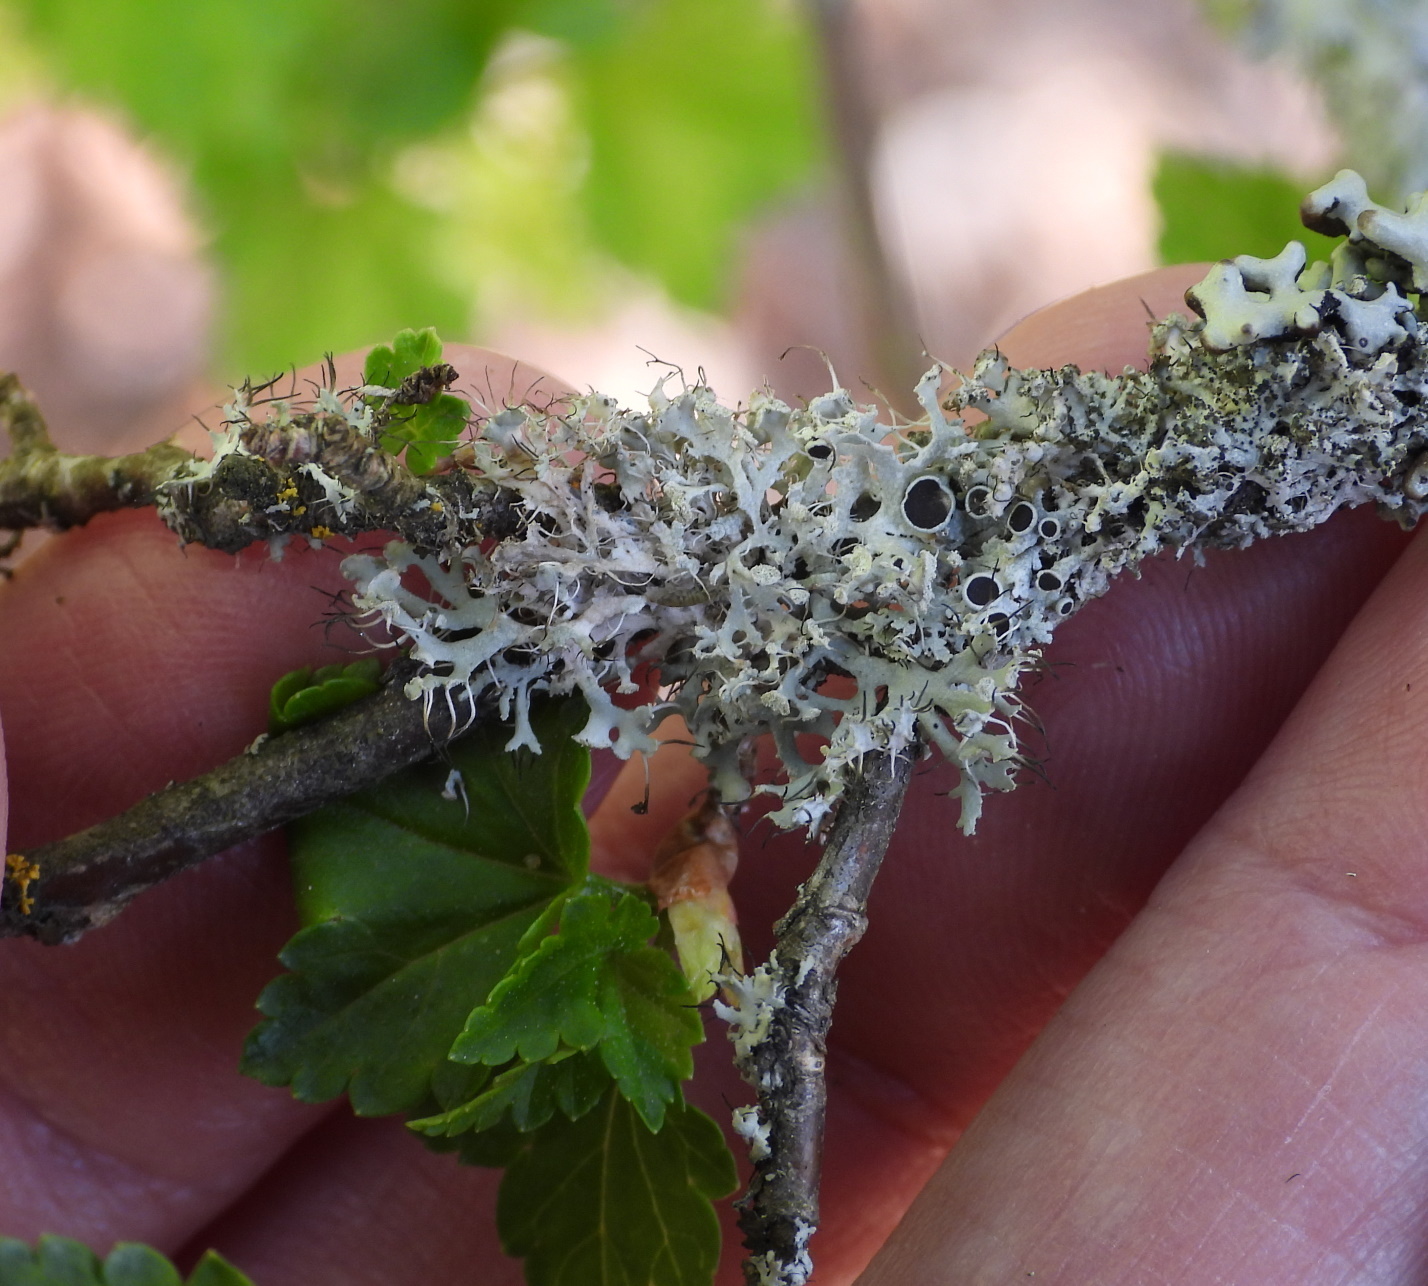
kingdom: Fungi
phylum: Ascomycota
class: Lecanoromycetes
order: Caliciales
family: Physciaceae
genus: Physcia
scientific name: Physcia tenella
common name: Fringed rosette lichen
